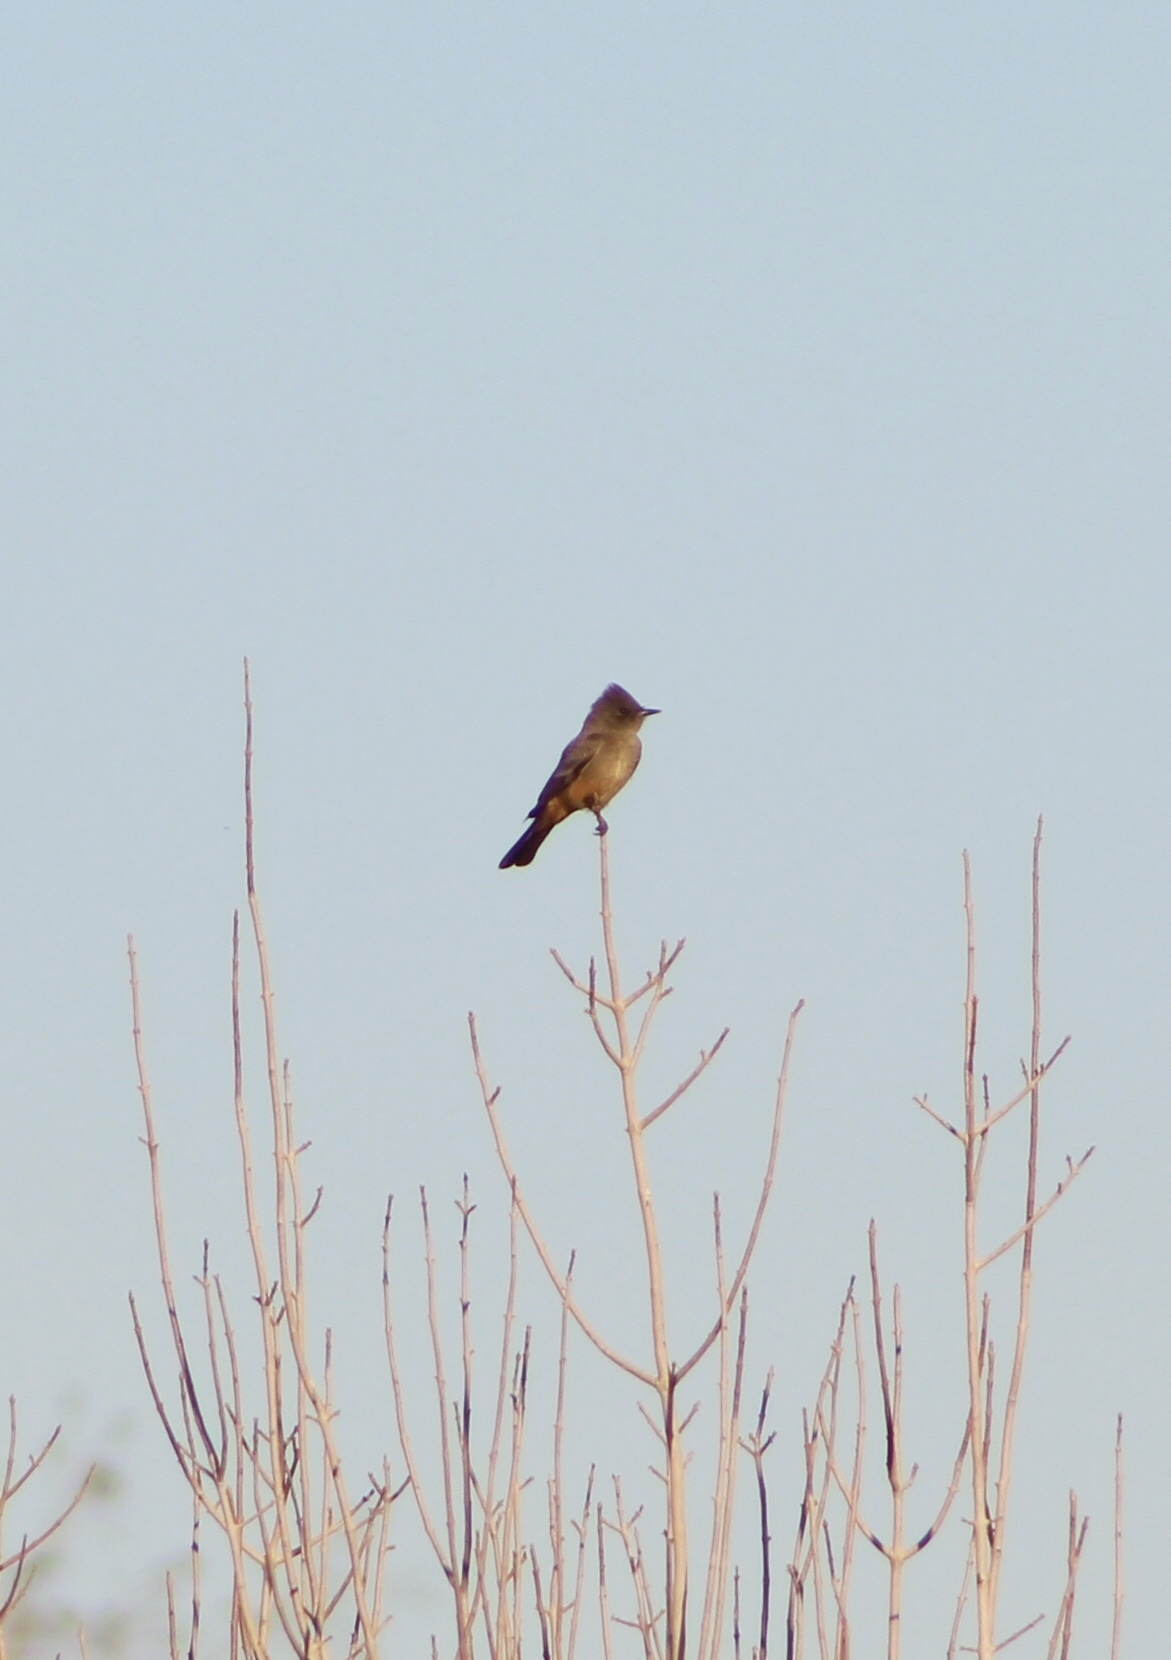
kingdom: Animalia
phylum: Chordata
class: Aves
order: Passeriformes
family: Tyrannidae
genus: Sayornis
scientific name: Sayornis saya
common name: Say's phoebe
